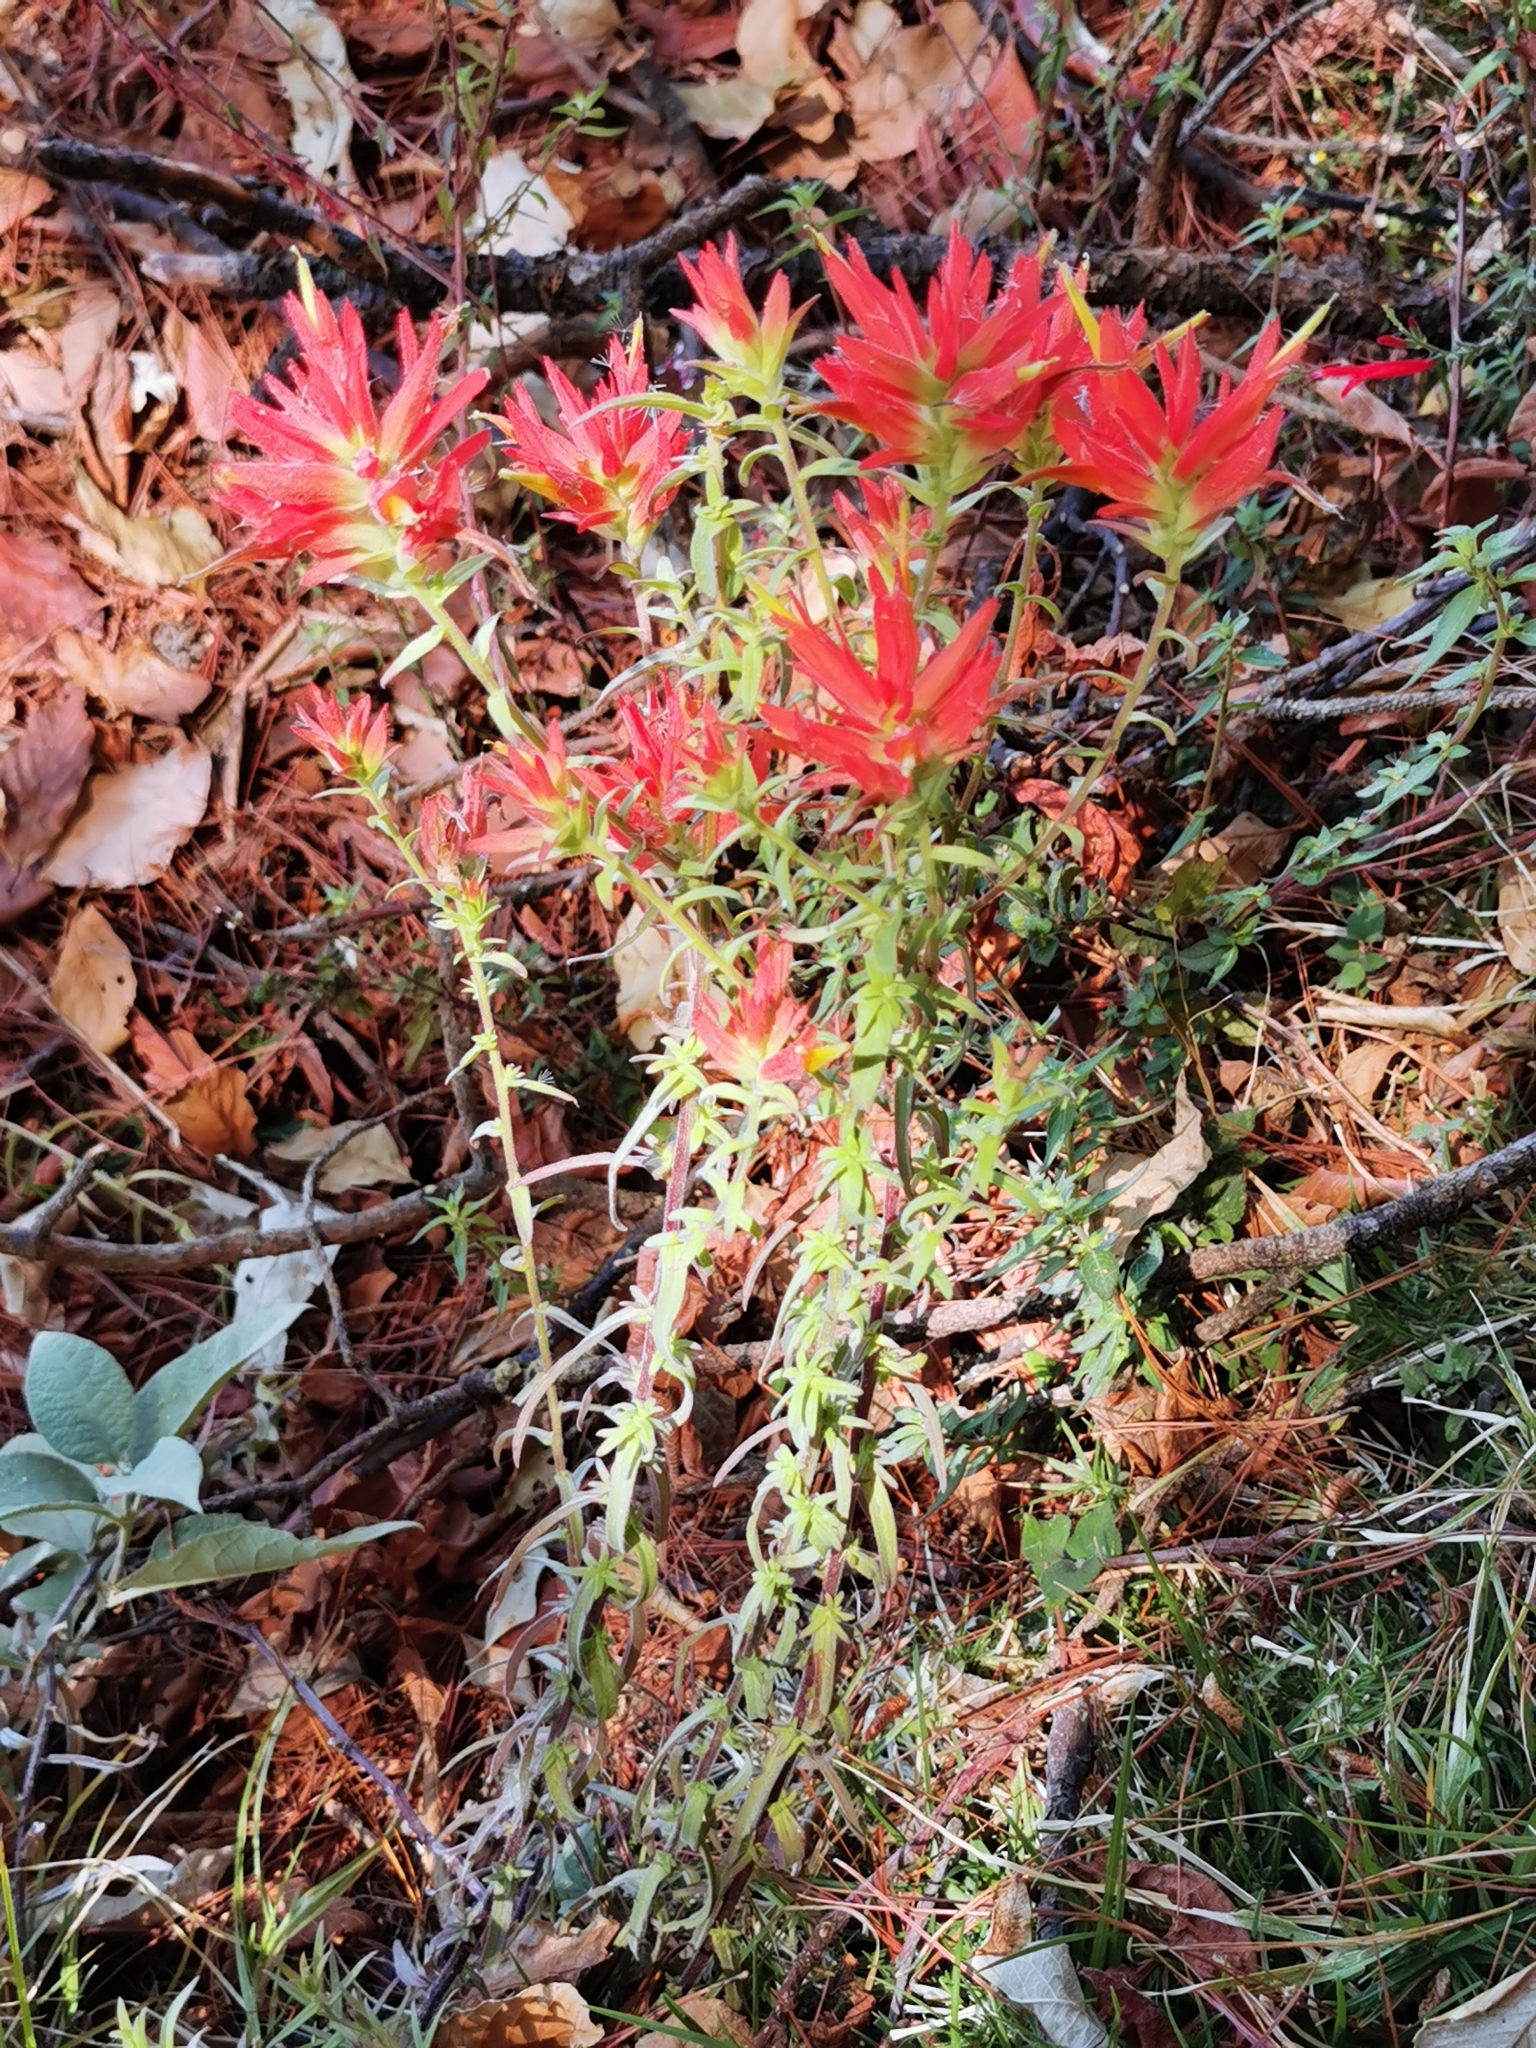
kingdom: Plantae
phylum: Tracheophyta
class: Magnoliopsida
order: Lamiales
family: Orobanchaceae
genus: Castilleja
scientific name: Castilleja tenuifolia
